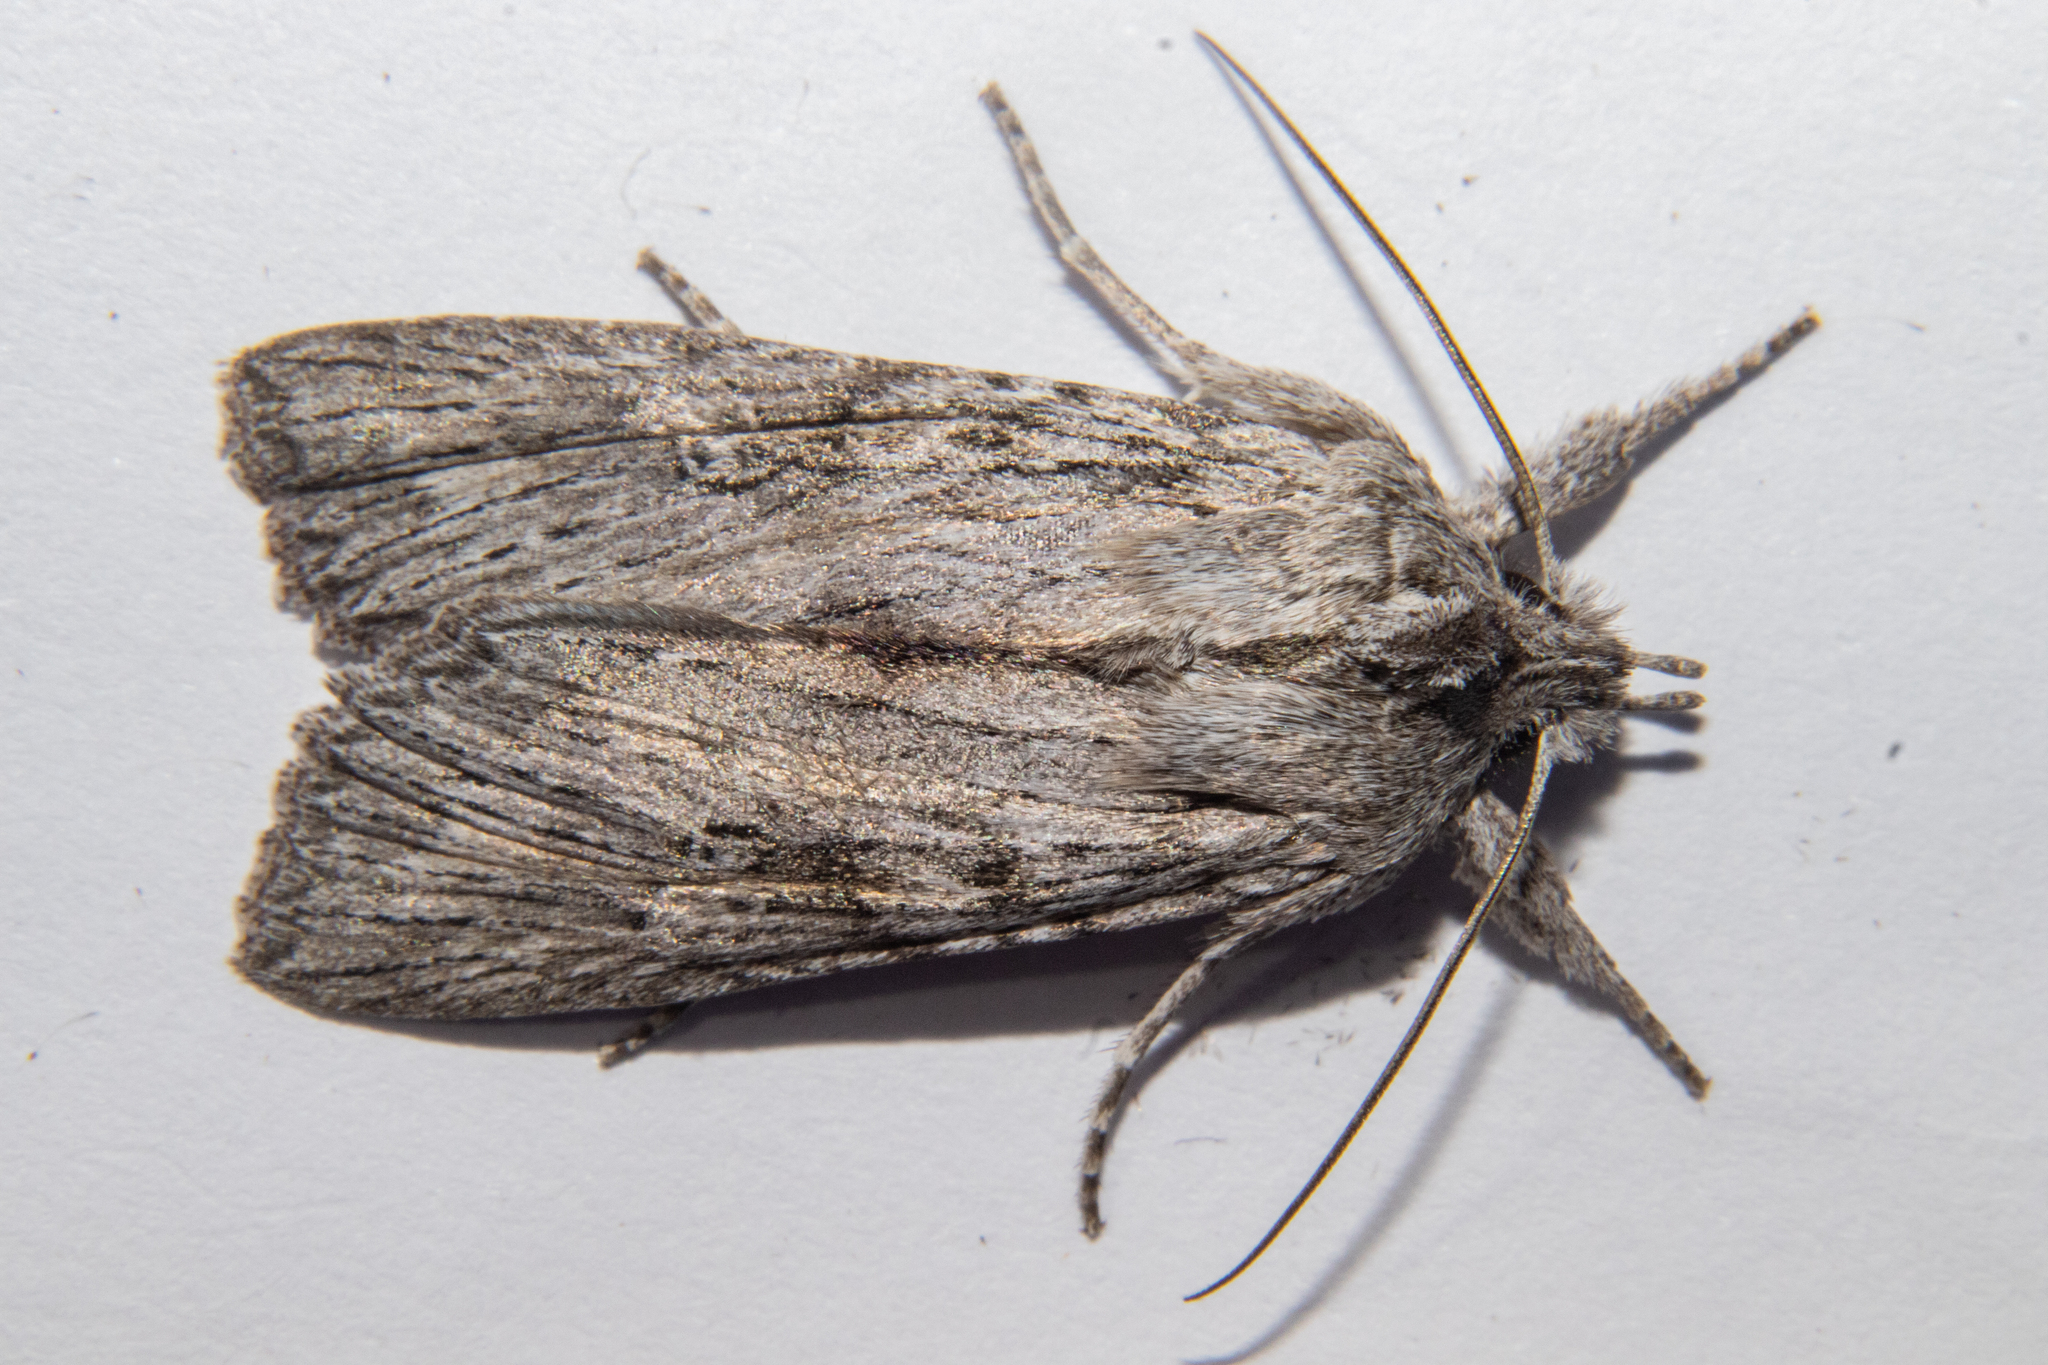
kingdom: Animalia
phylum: Arthropoda
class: Insecta
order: Lepidoptera
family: Noctuidae
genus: Physetica
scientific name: Physetica phricias
